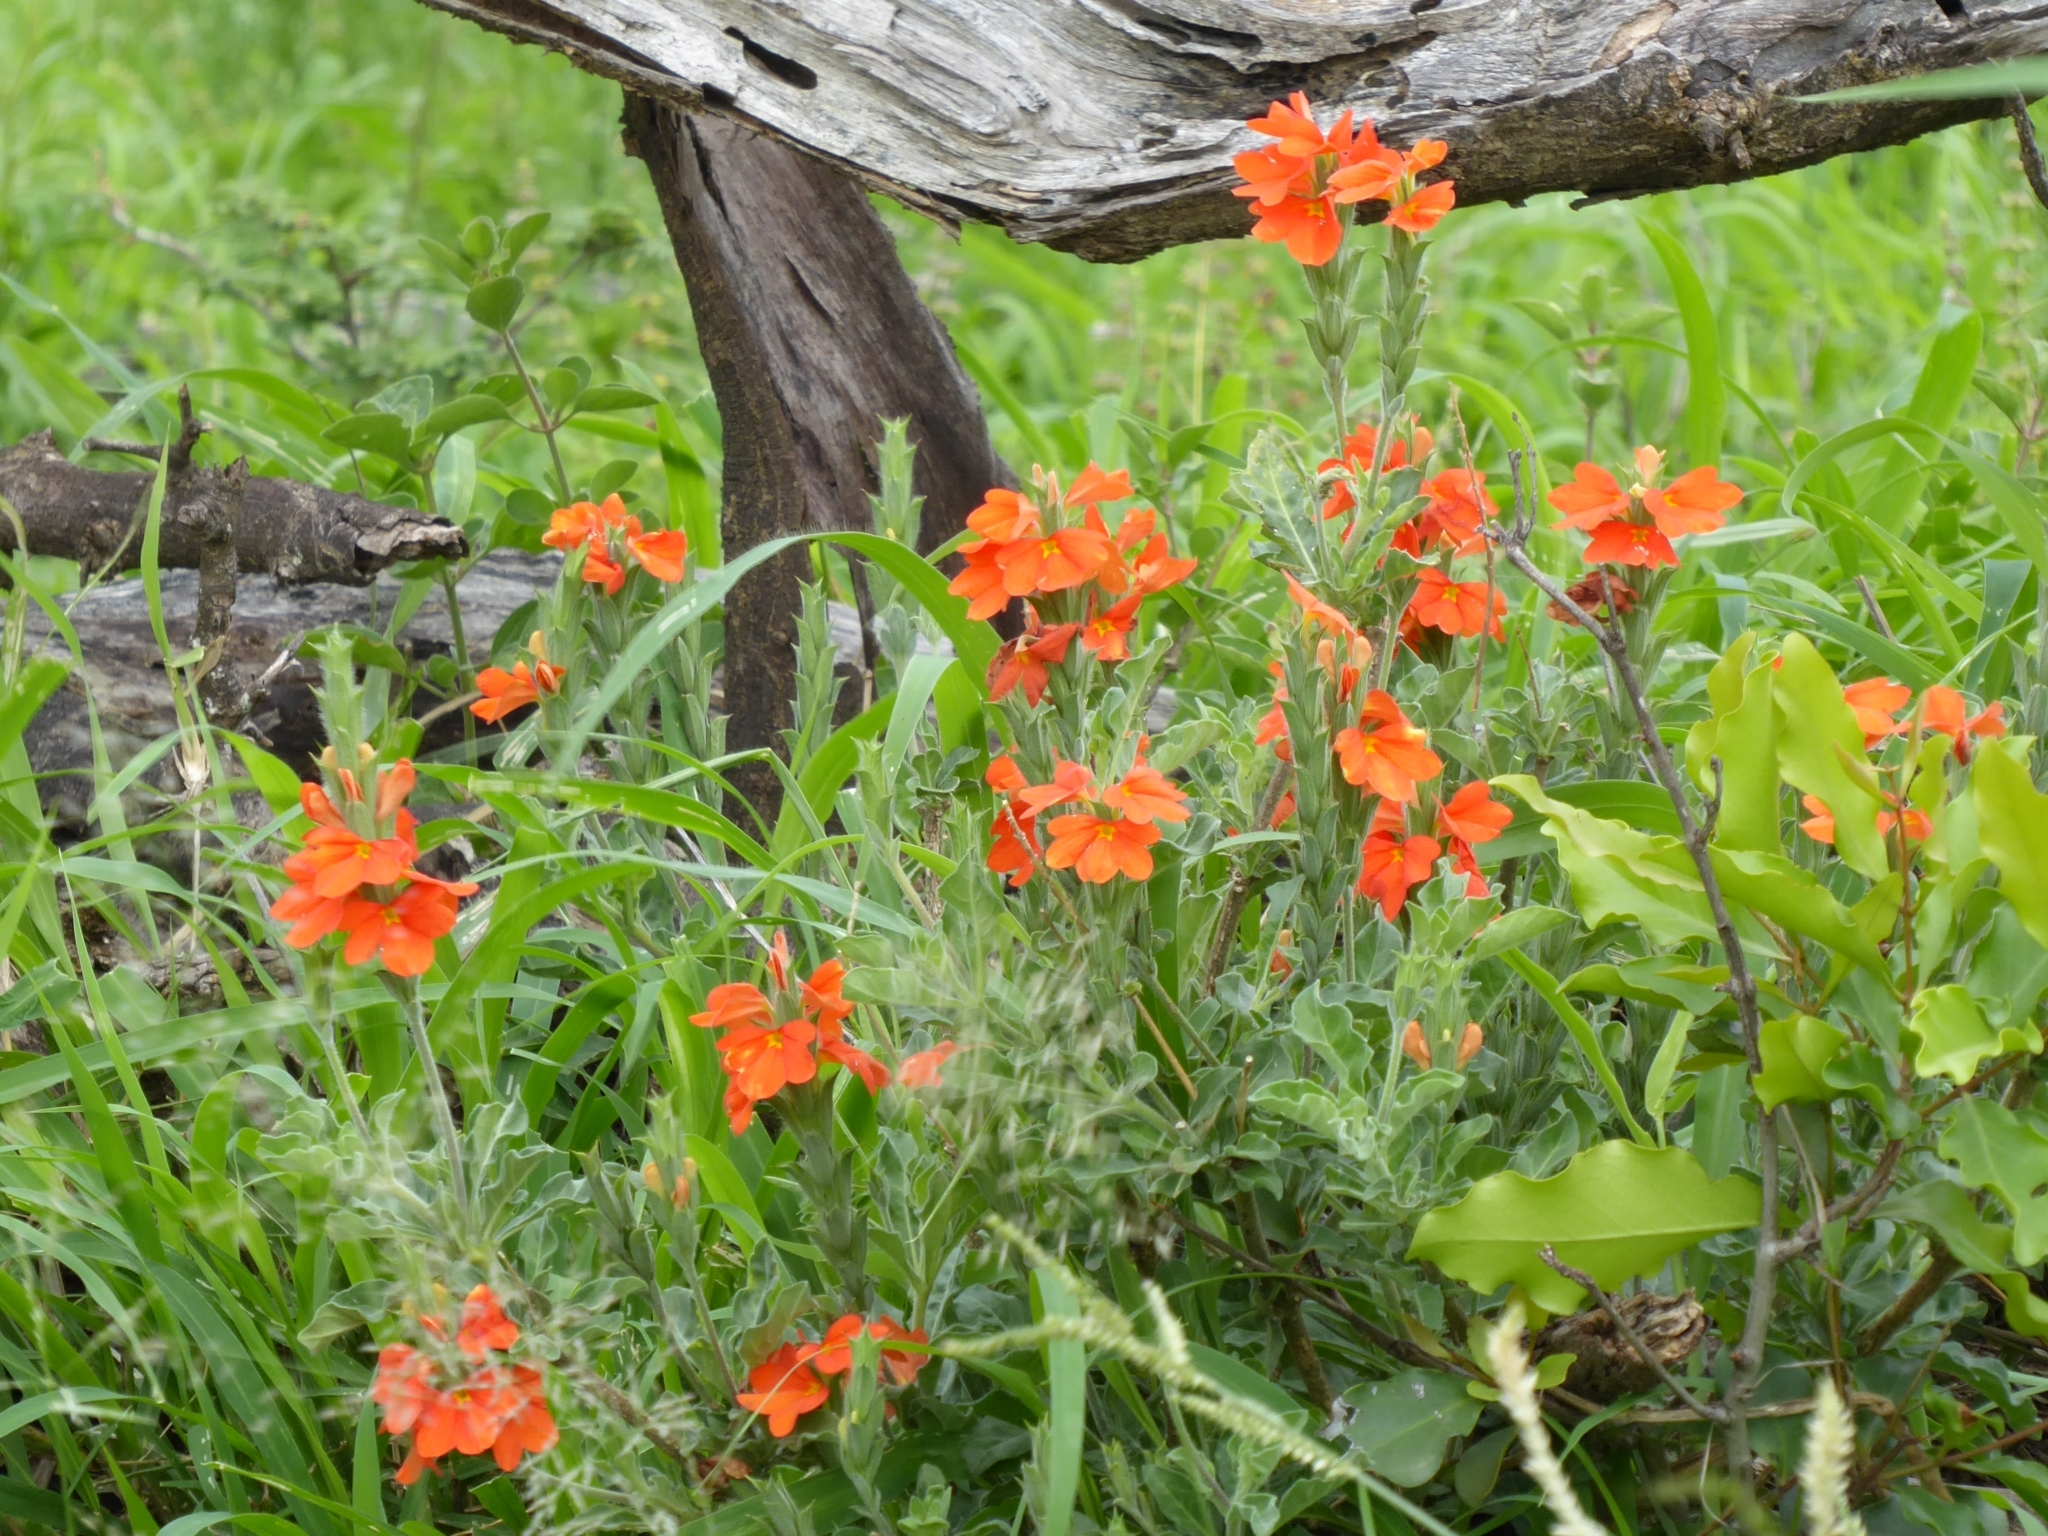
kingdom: Plantae
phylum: Tracheophyta
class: Magnoliopsida
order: Lamiales
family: Acanthaceae
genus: Crossandra
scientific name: Crossandra mucronata
